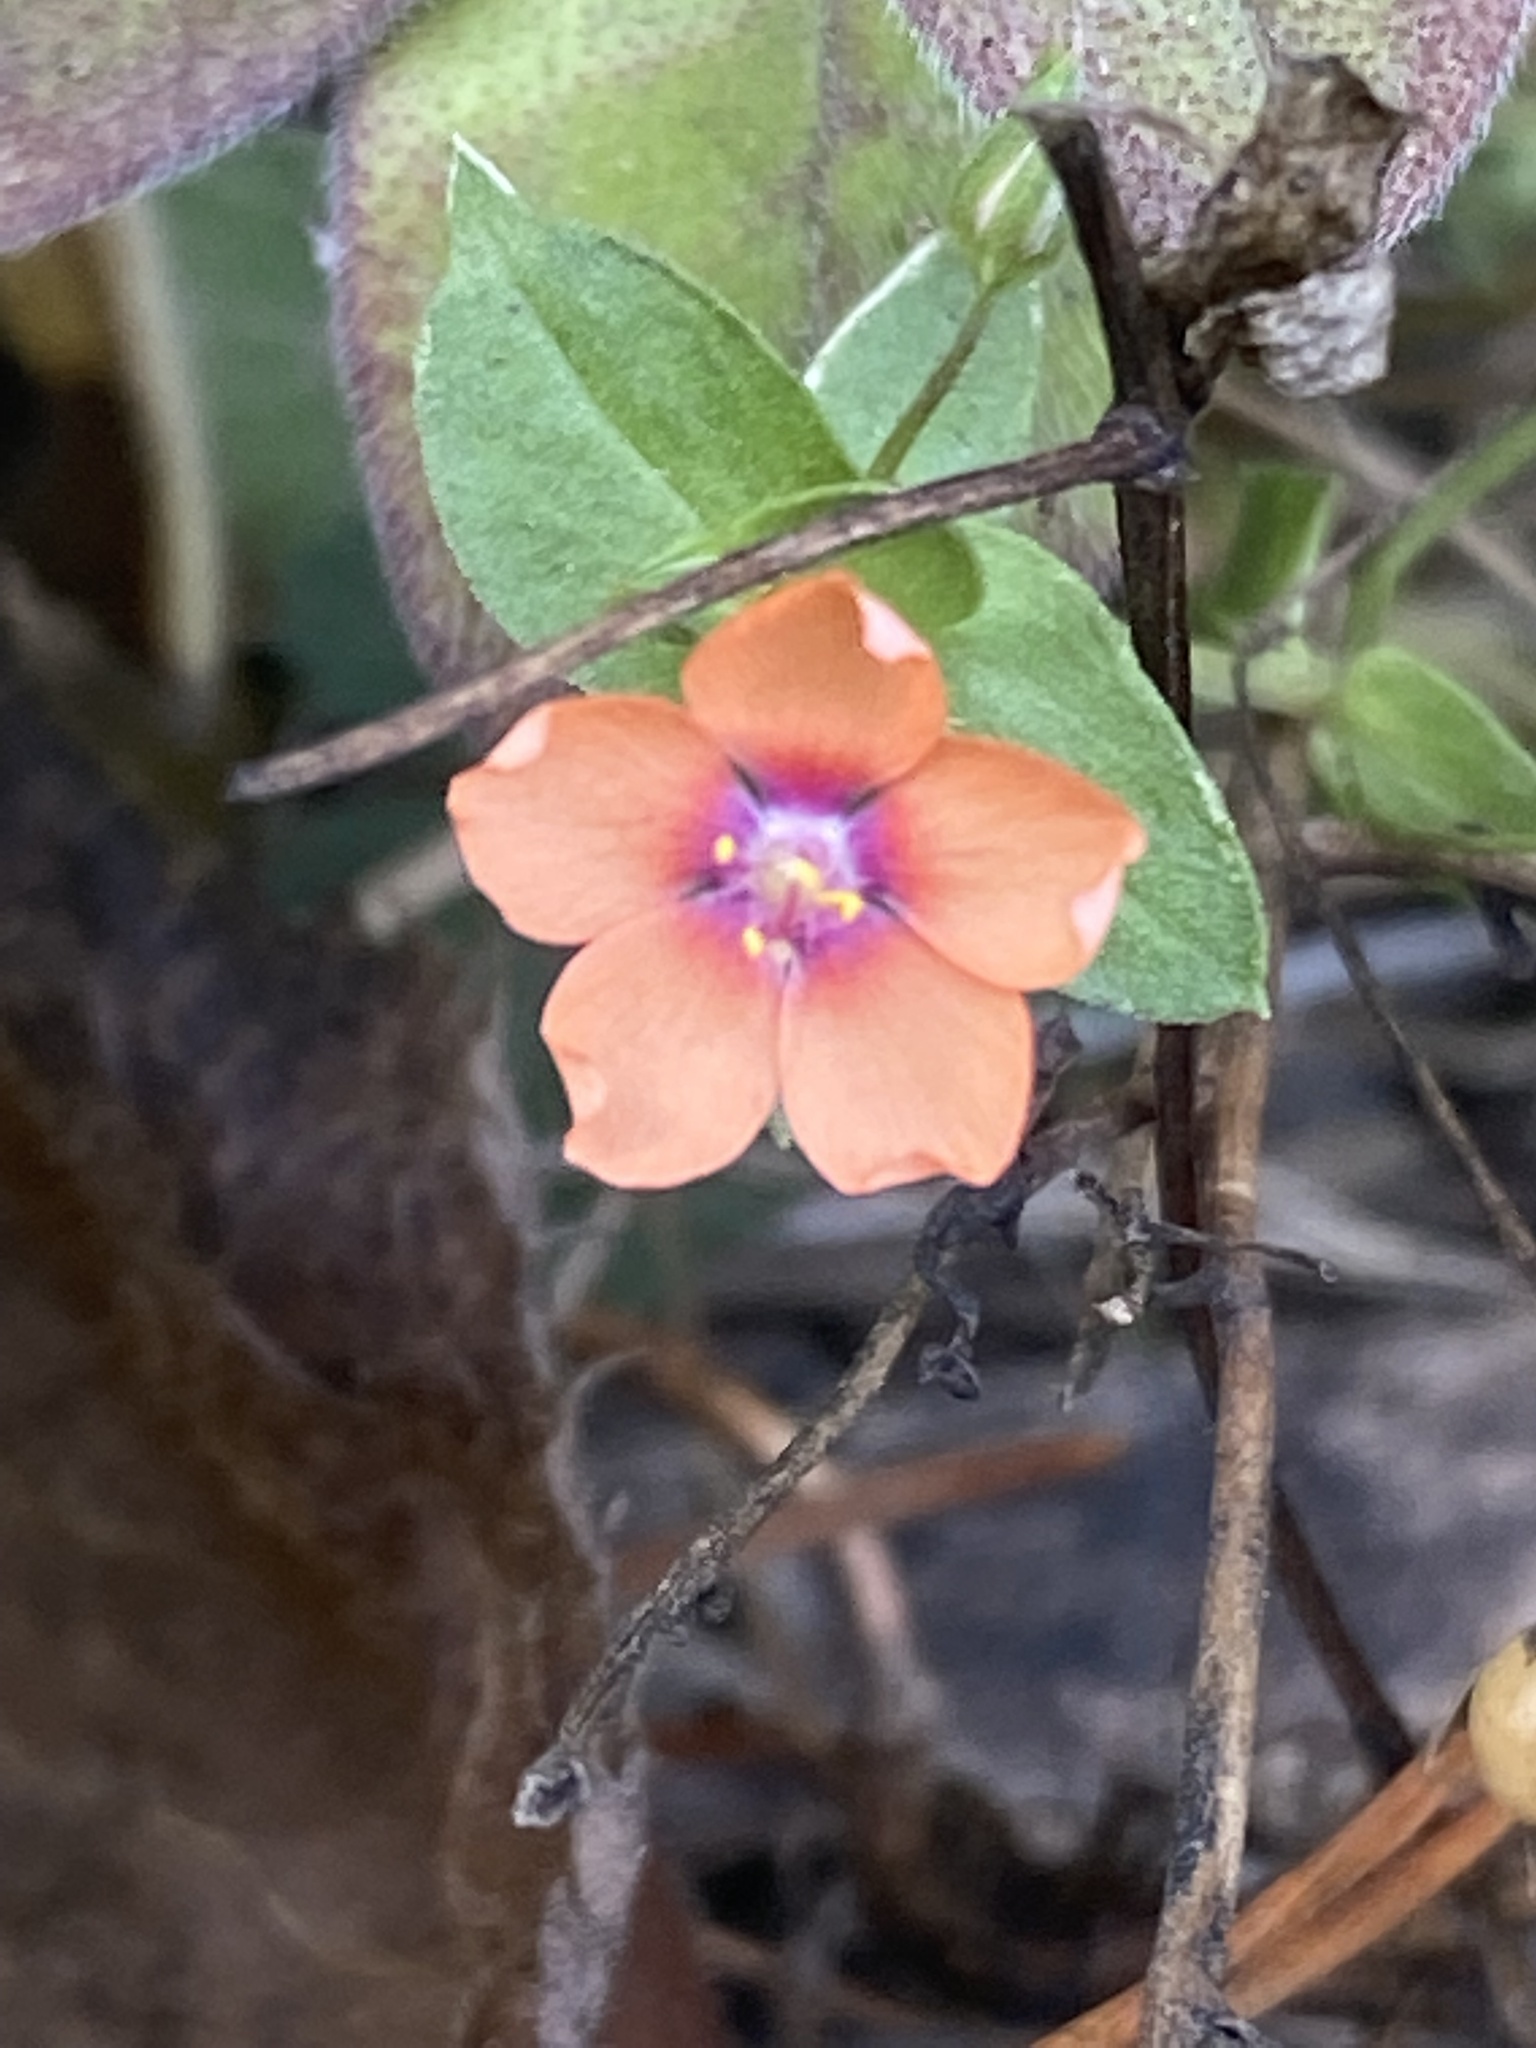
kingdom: Plantae
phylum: Tracheophyta
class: Magnoliopsida
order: Ericales
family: Primulaceae
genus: Lysimachia
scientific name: Lysimachia arvensis
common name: Scarlet pimpernel
